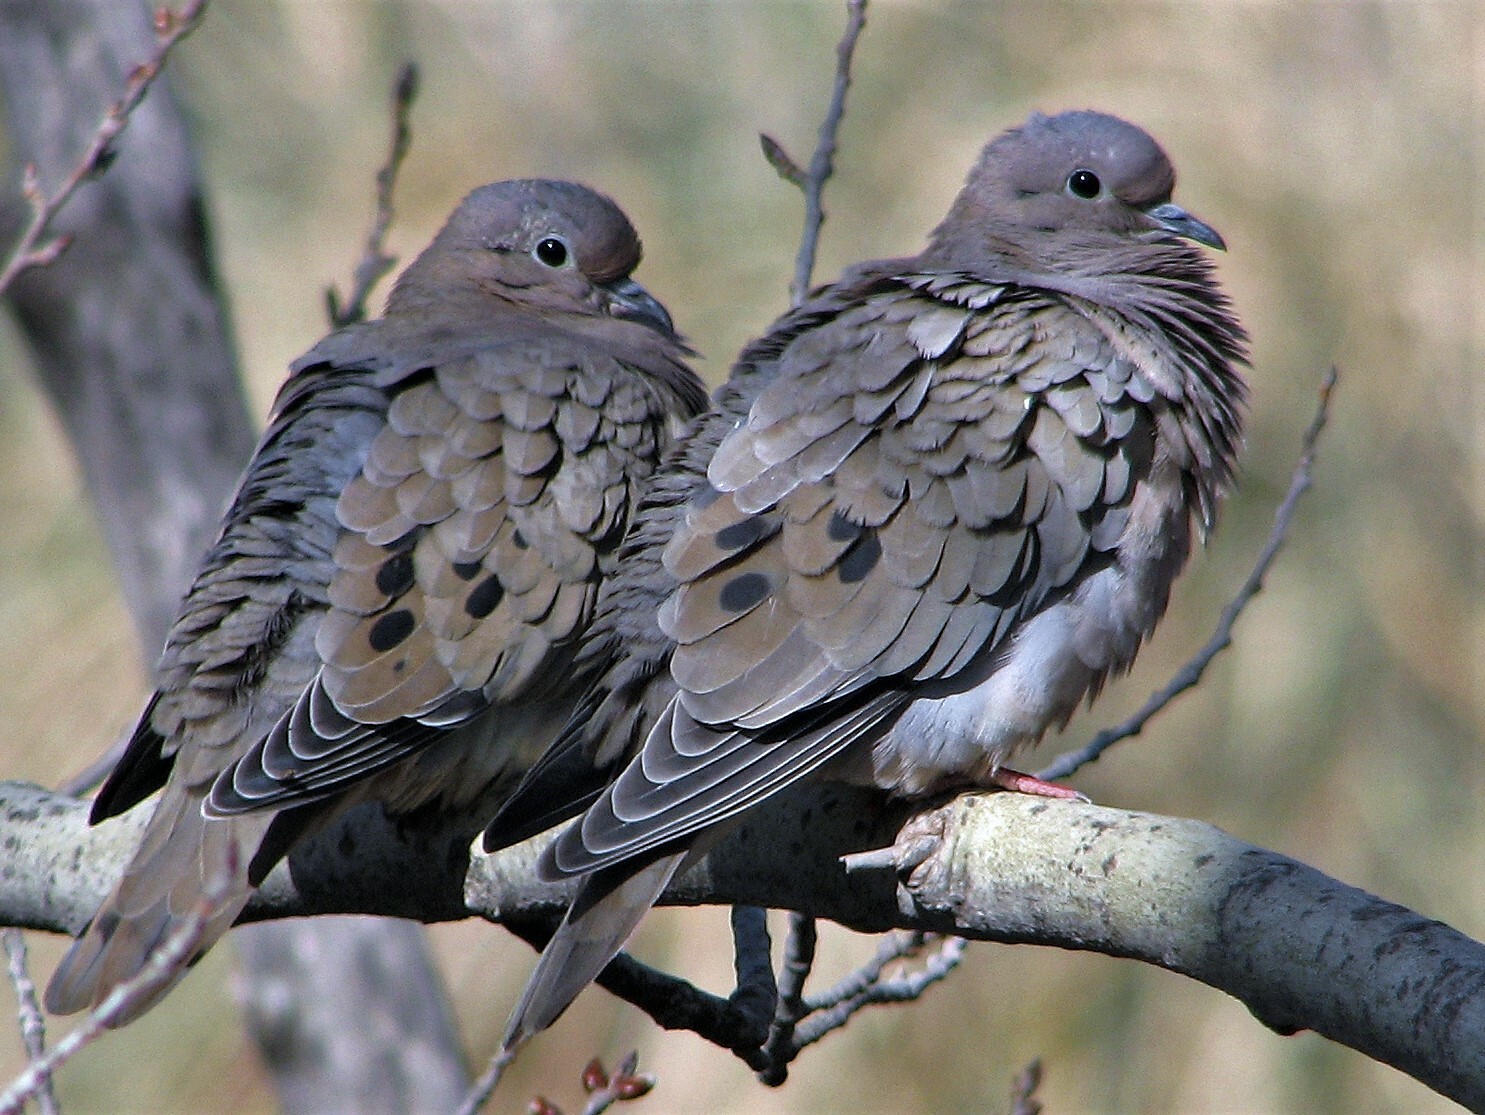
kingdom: Animalia
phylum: Chordata
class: Aves
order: Columbiformes
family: Columbidae
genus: Zenaida
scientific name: Zenaida auriculata
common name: Eared dove
